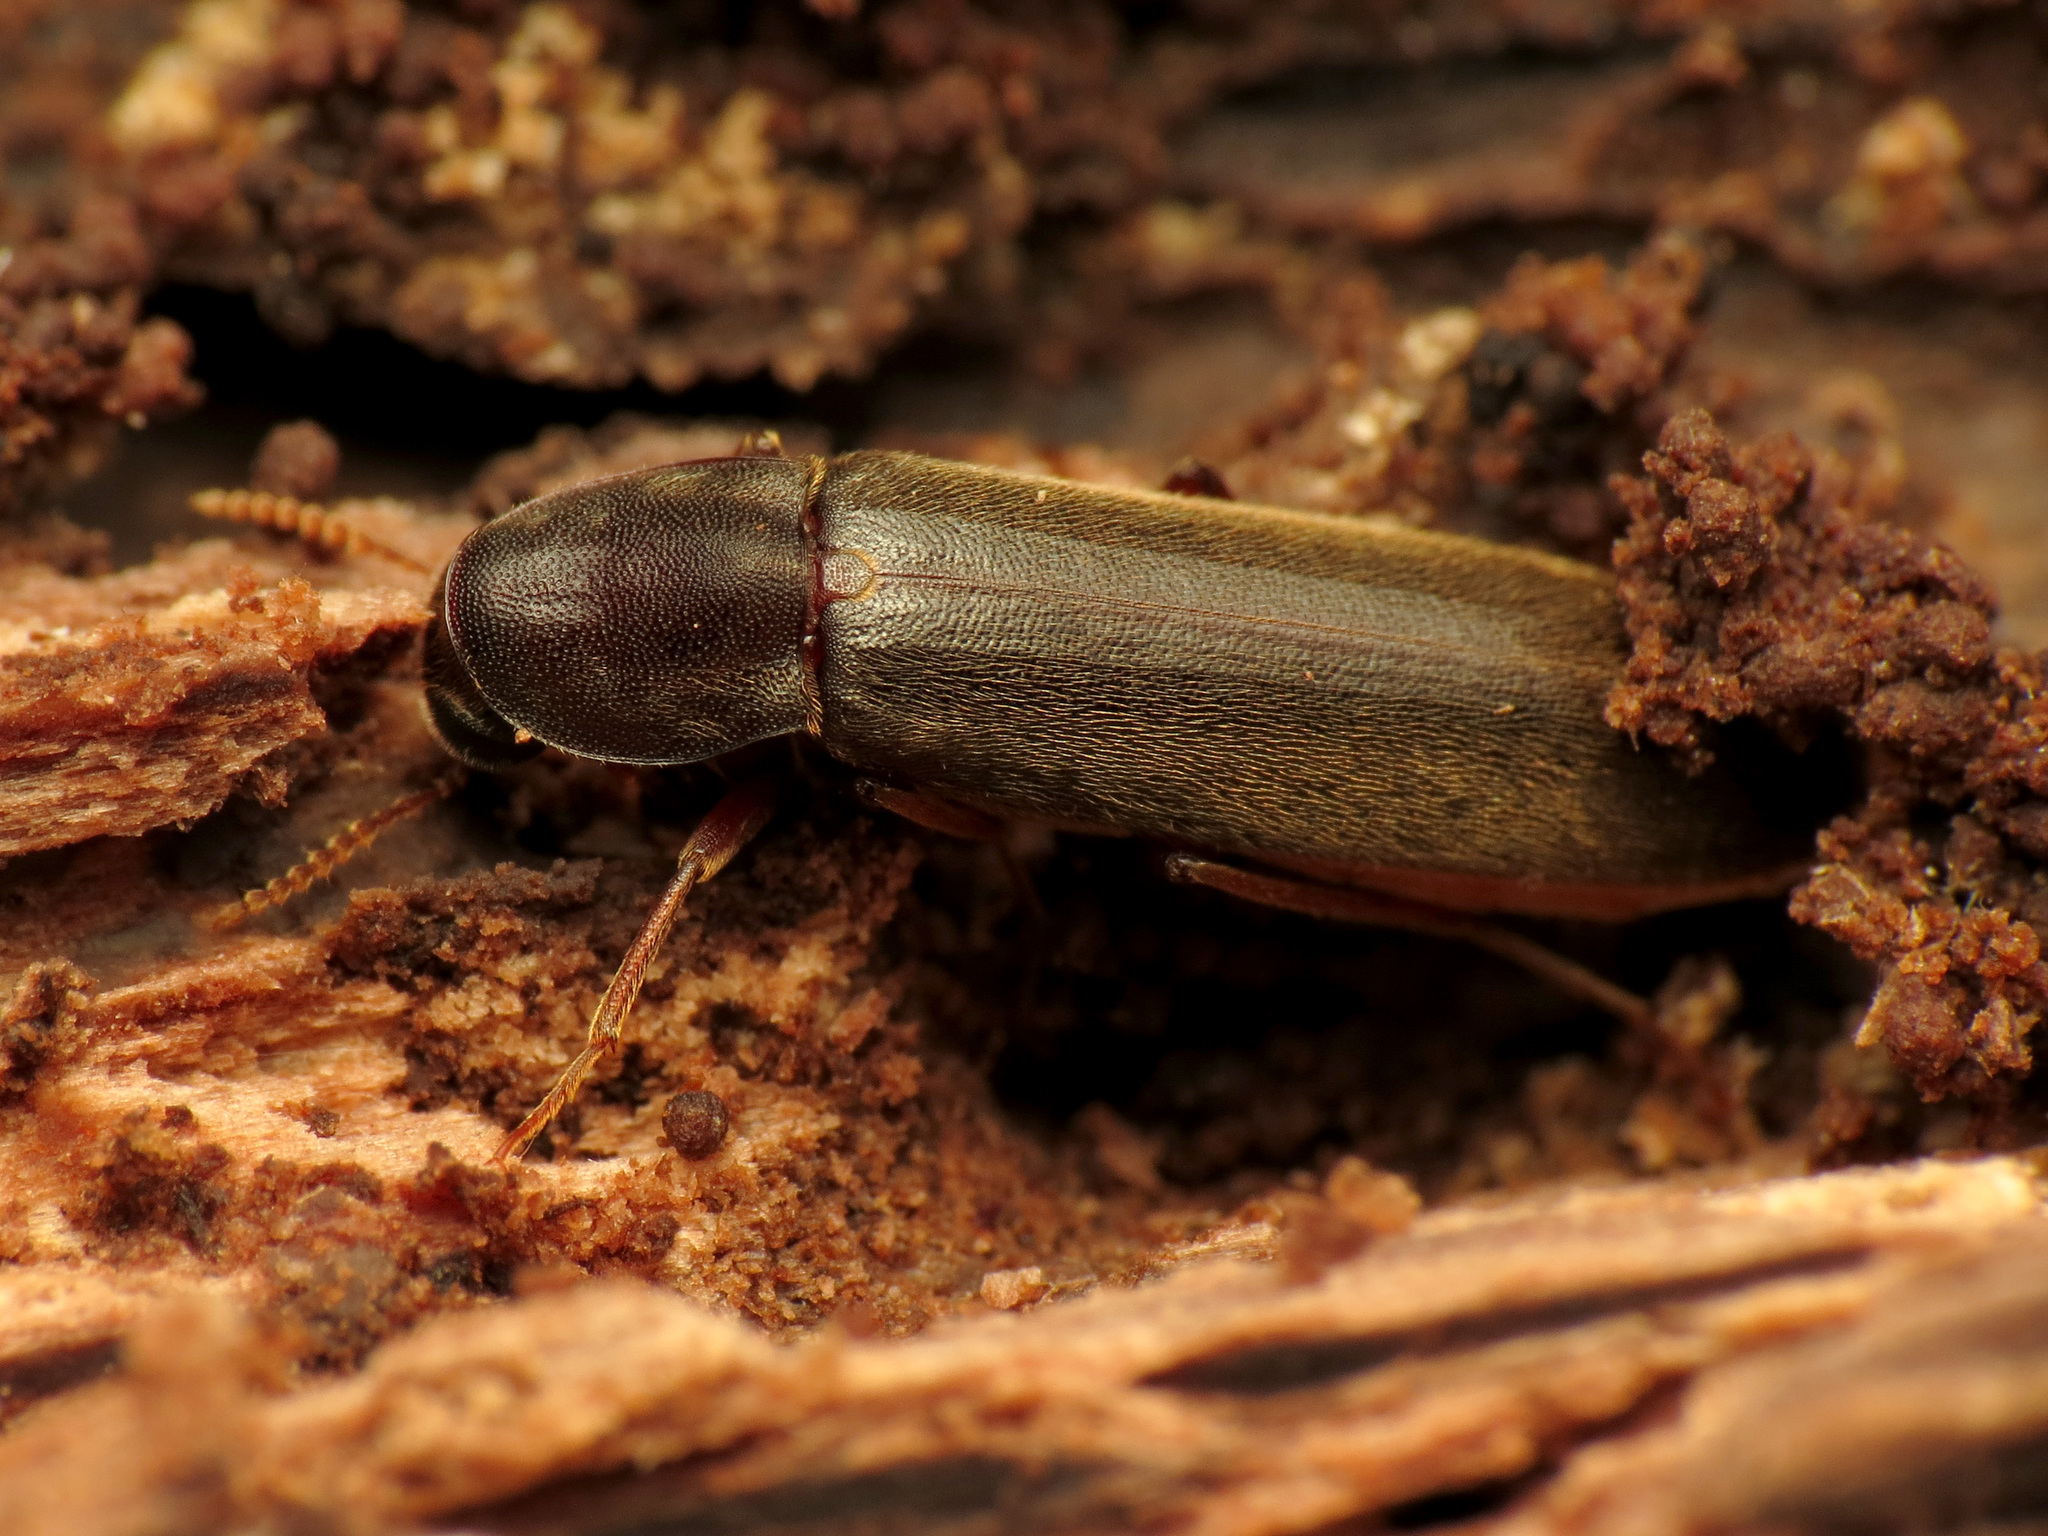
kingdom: Animalia
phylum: Arthropoda
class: Insecta
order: Coleoptera
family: Lymexylidae
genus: Melittomma
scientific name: Melittomma sericeum
